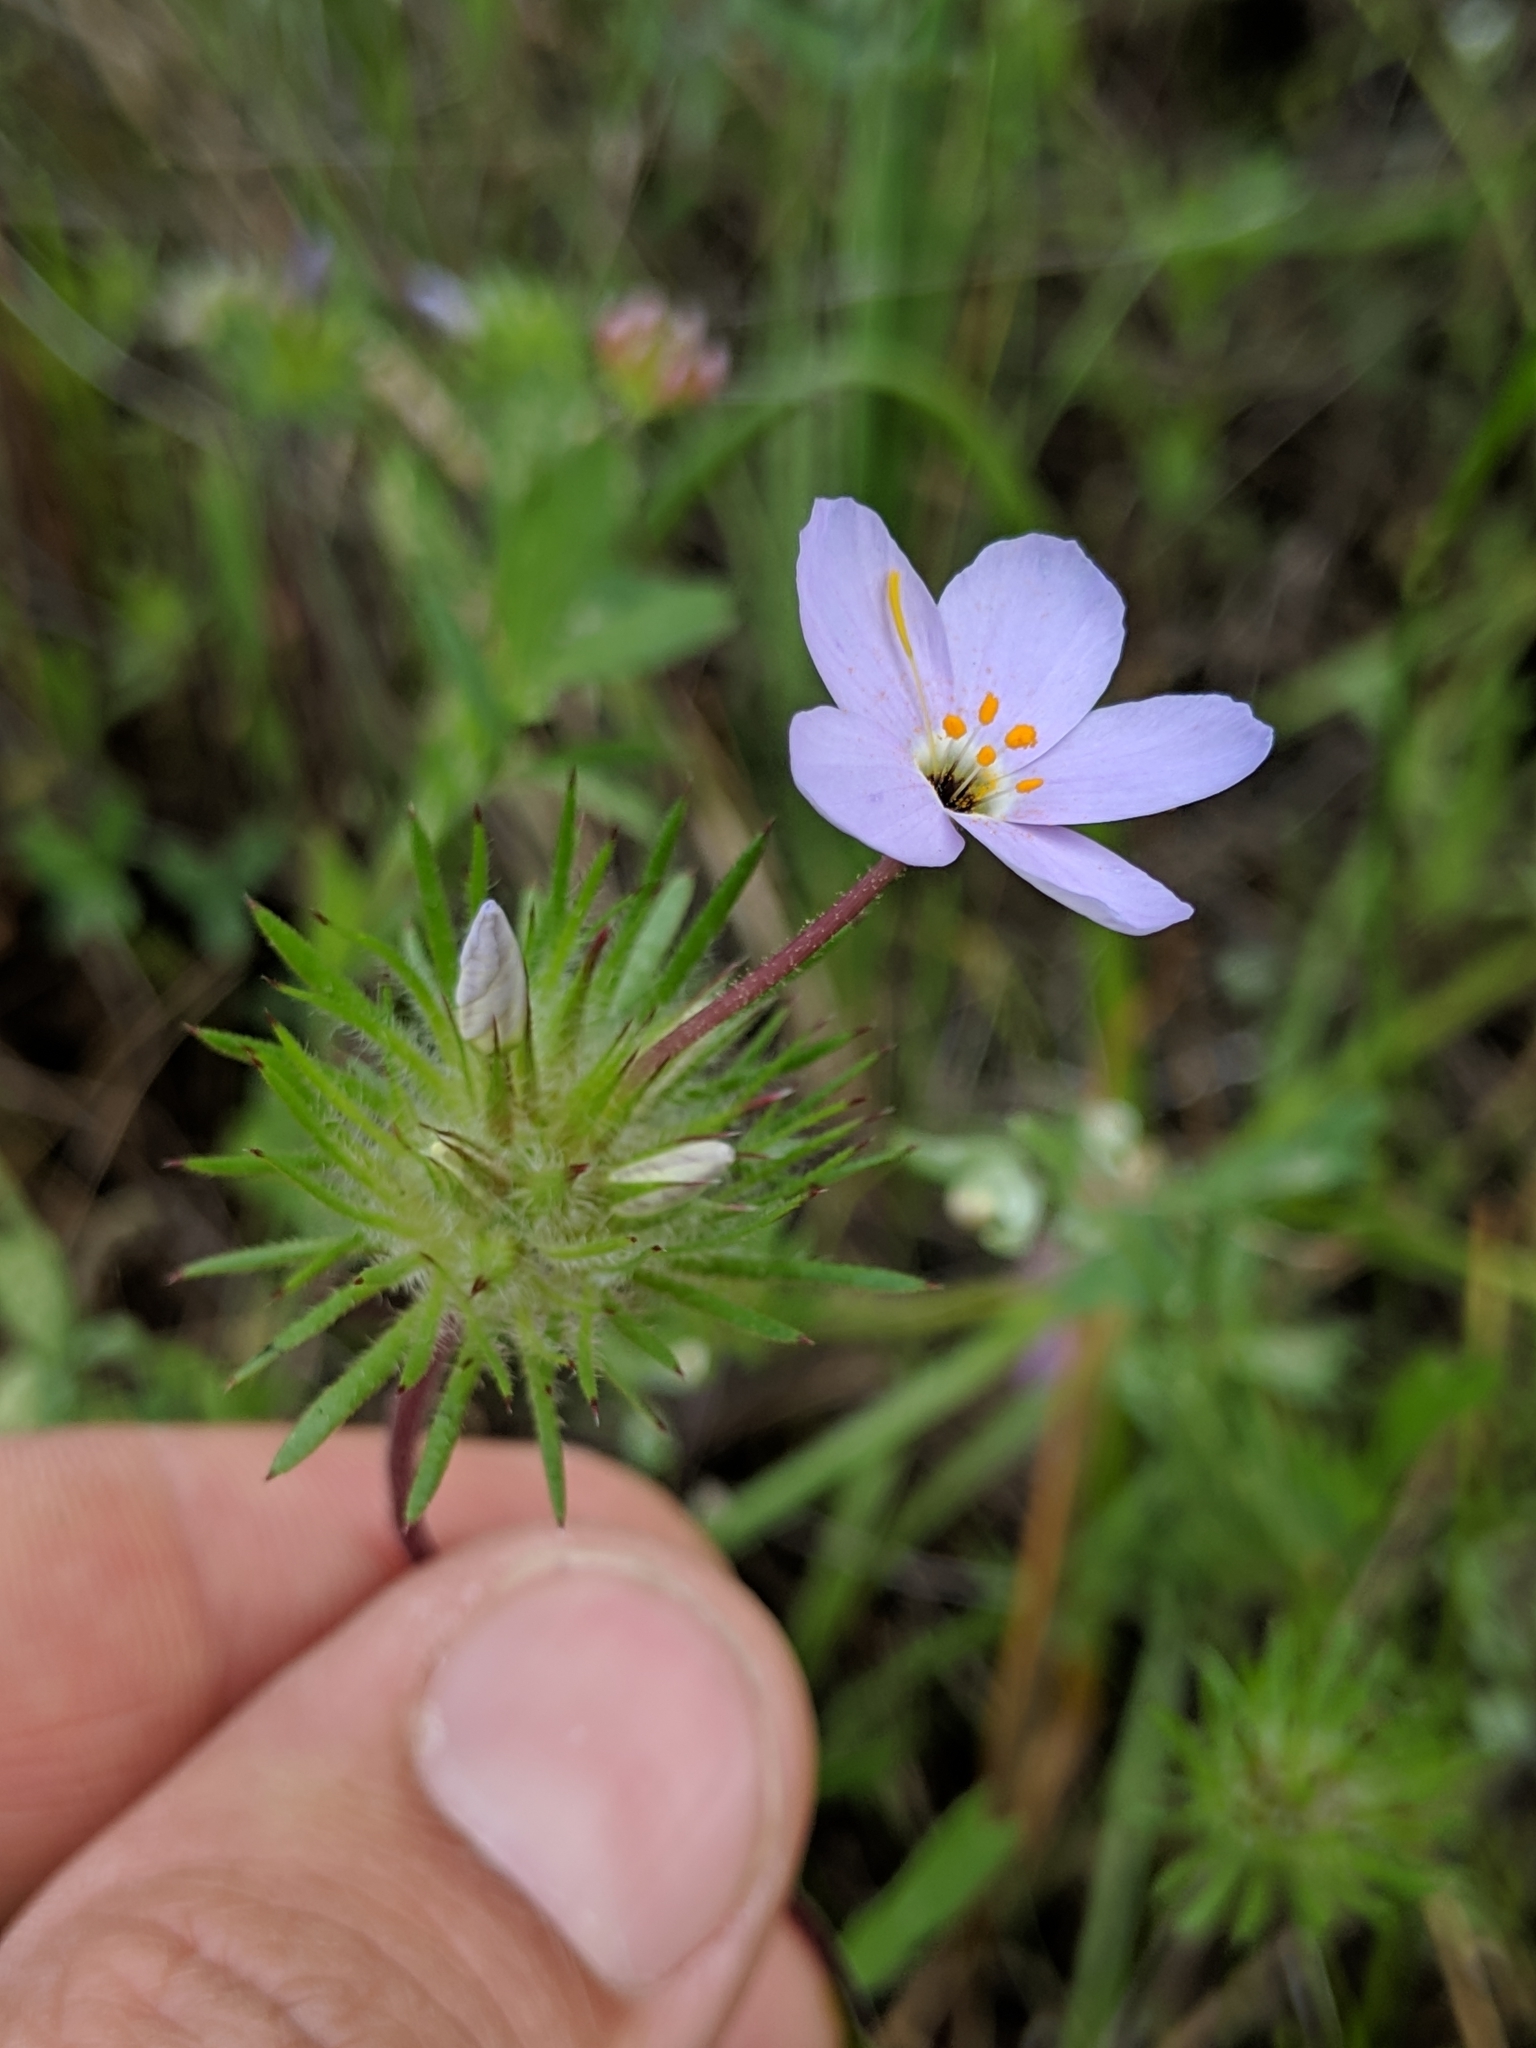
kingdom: Plantae
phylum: Tracheophyta
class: Magnoliopsida
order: Ericales
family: Polemoniaceae
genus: Leptosiphon
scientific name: Leptosiphon androsaceus
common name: False babystars
